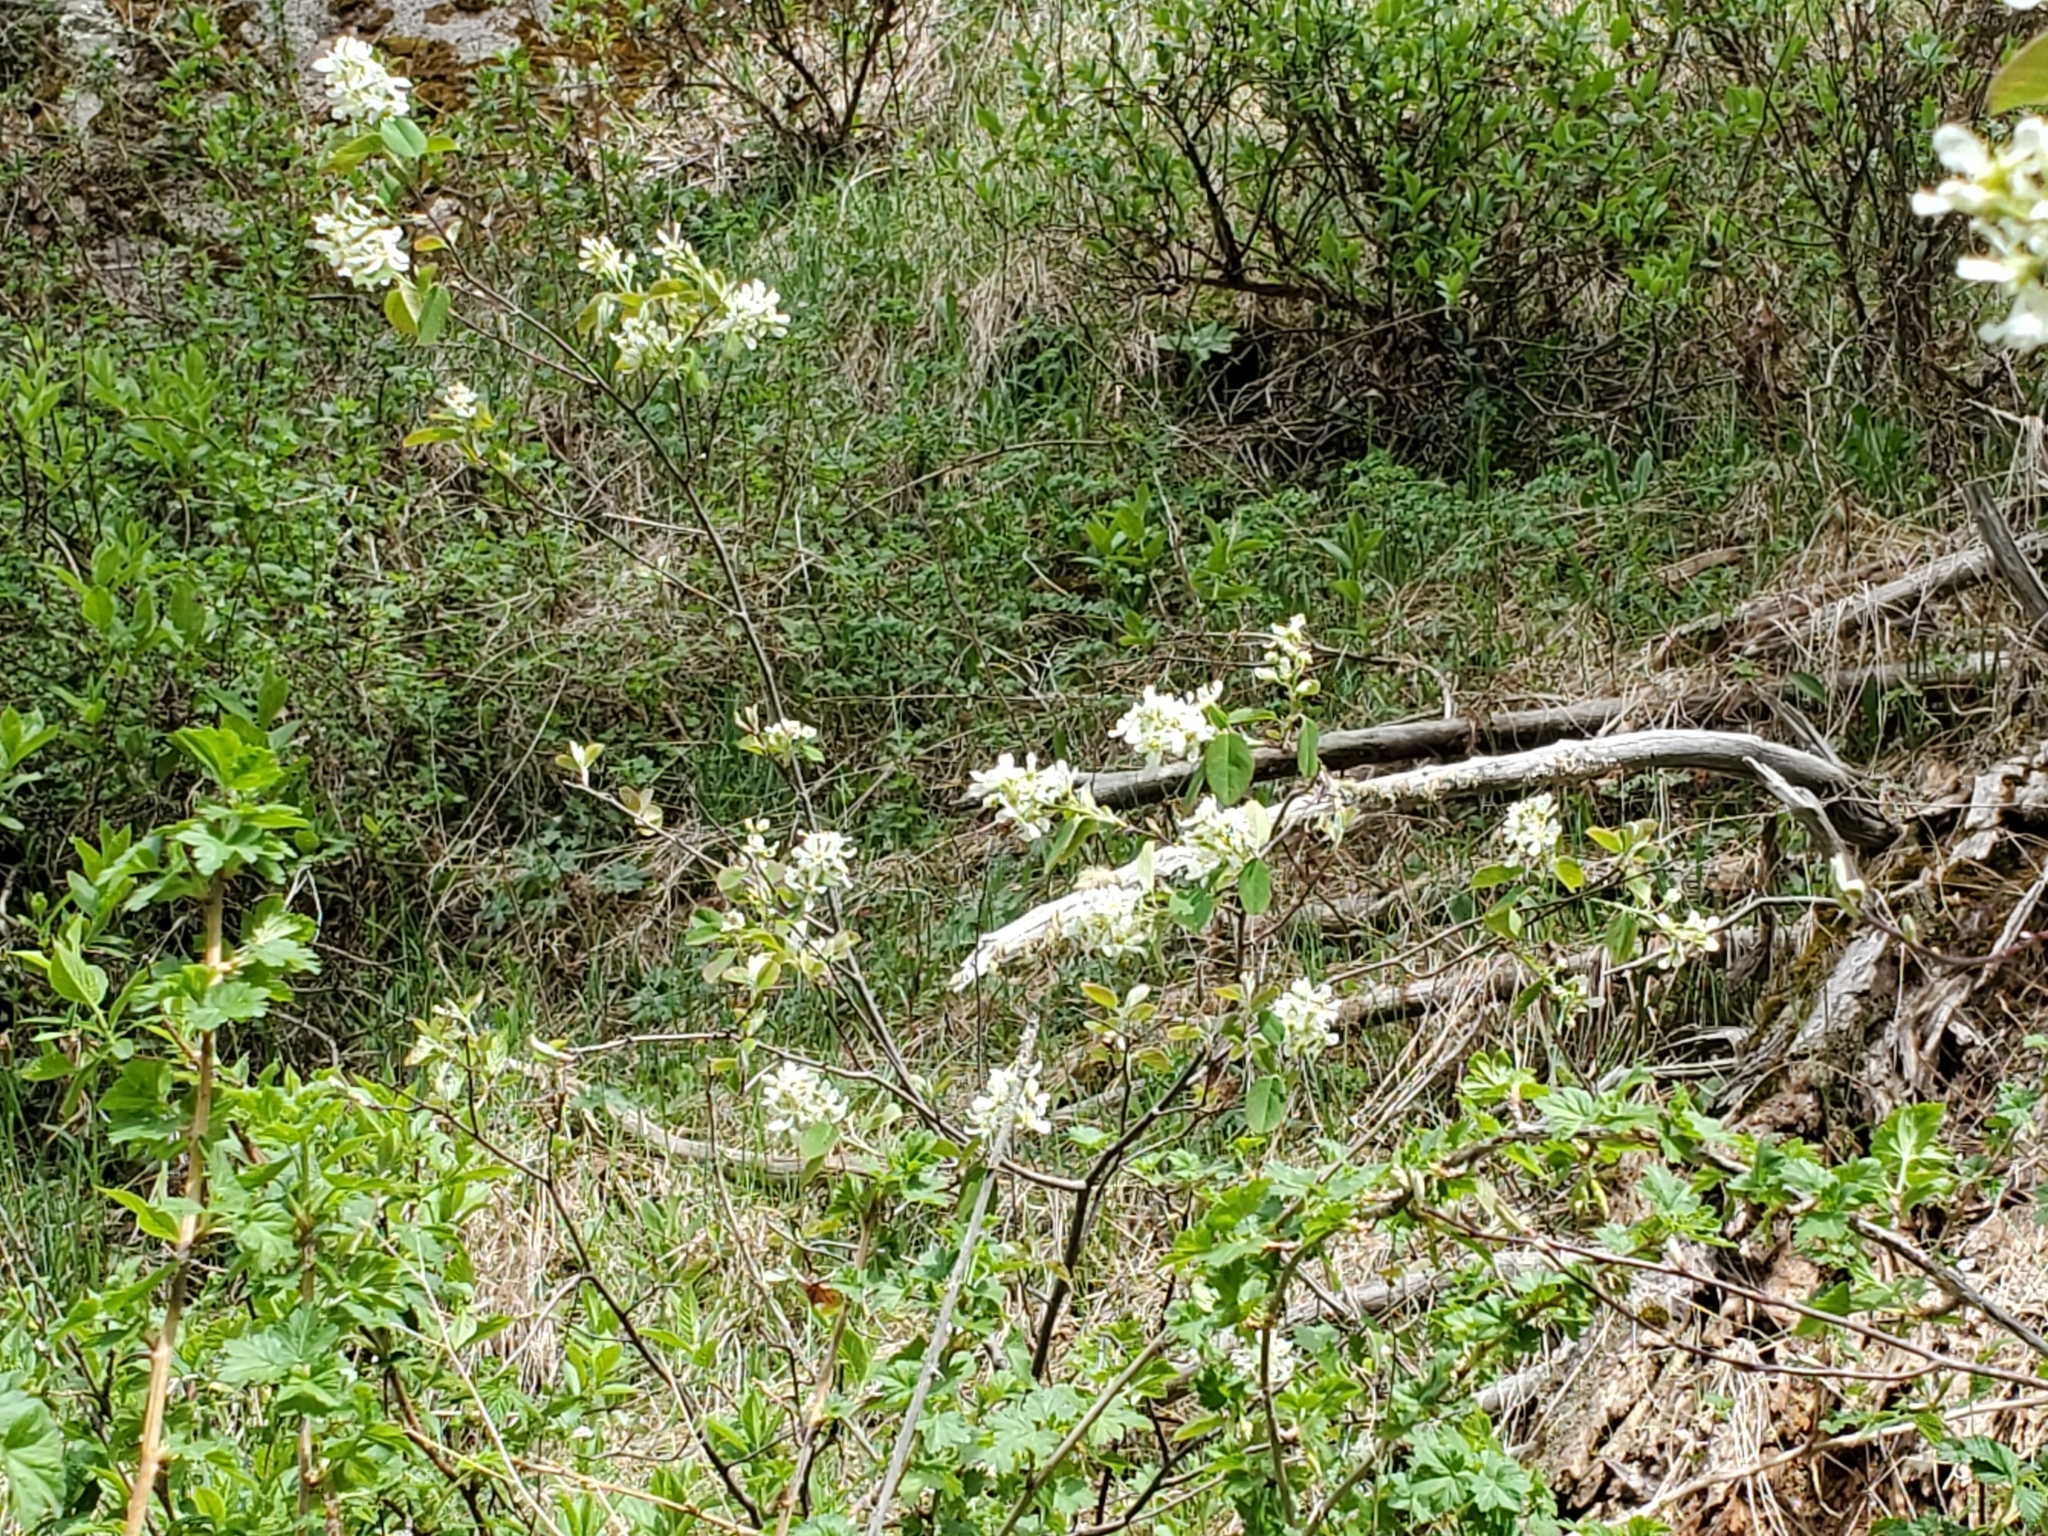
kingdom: Plantae
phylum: Tracheophyta
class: Magnoliopsida
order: Rosales
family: Rosaceae
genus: Amelanchier
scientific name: Amelanchier utahensis
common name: Utah serviceberry
